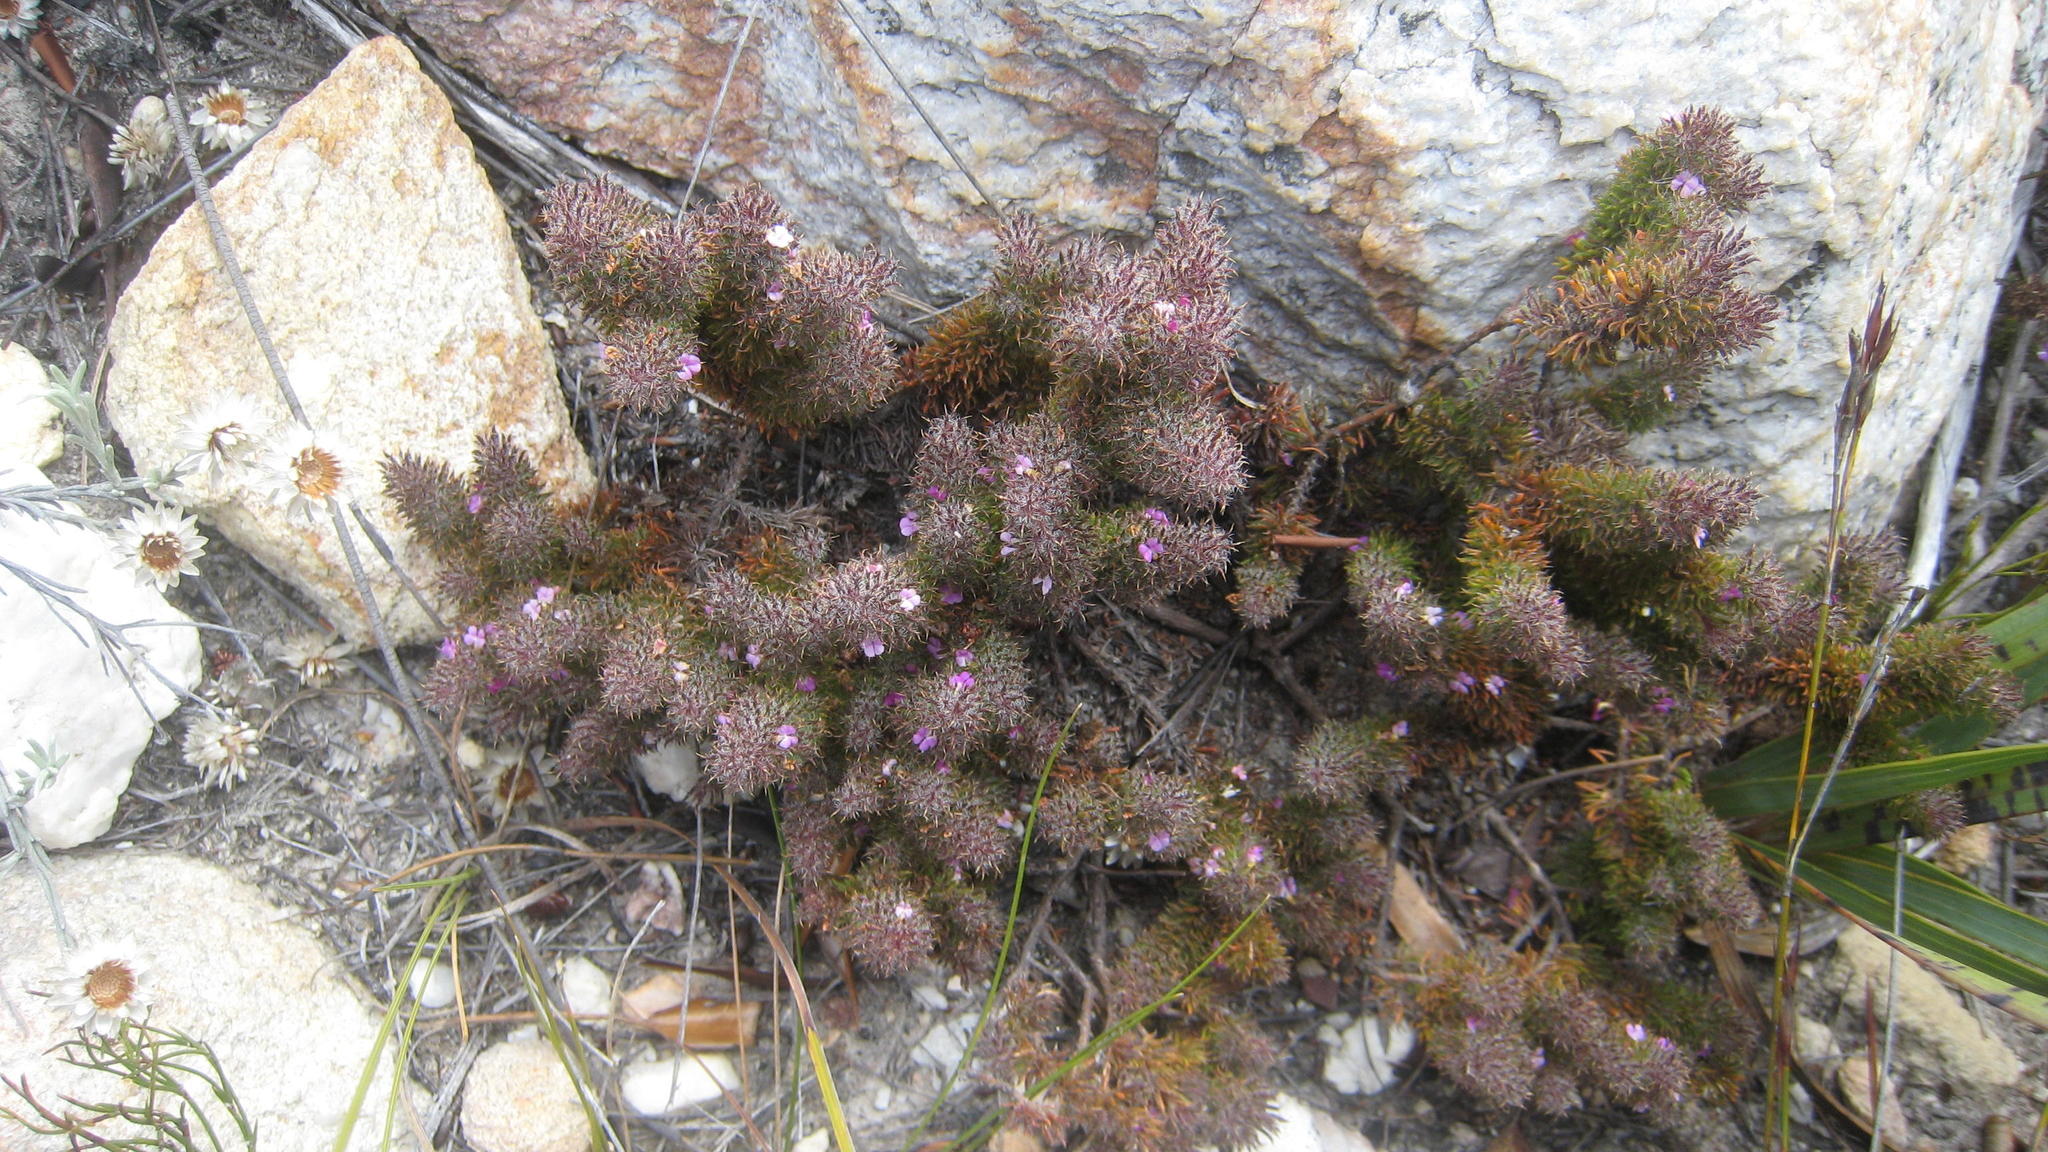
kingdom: Plantae
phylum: Tracheophyta
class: Magnoliopsida
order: Fabales
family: Polygalaceae
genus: Muraltia
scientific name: Muraltia ciliaris
